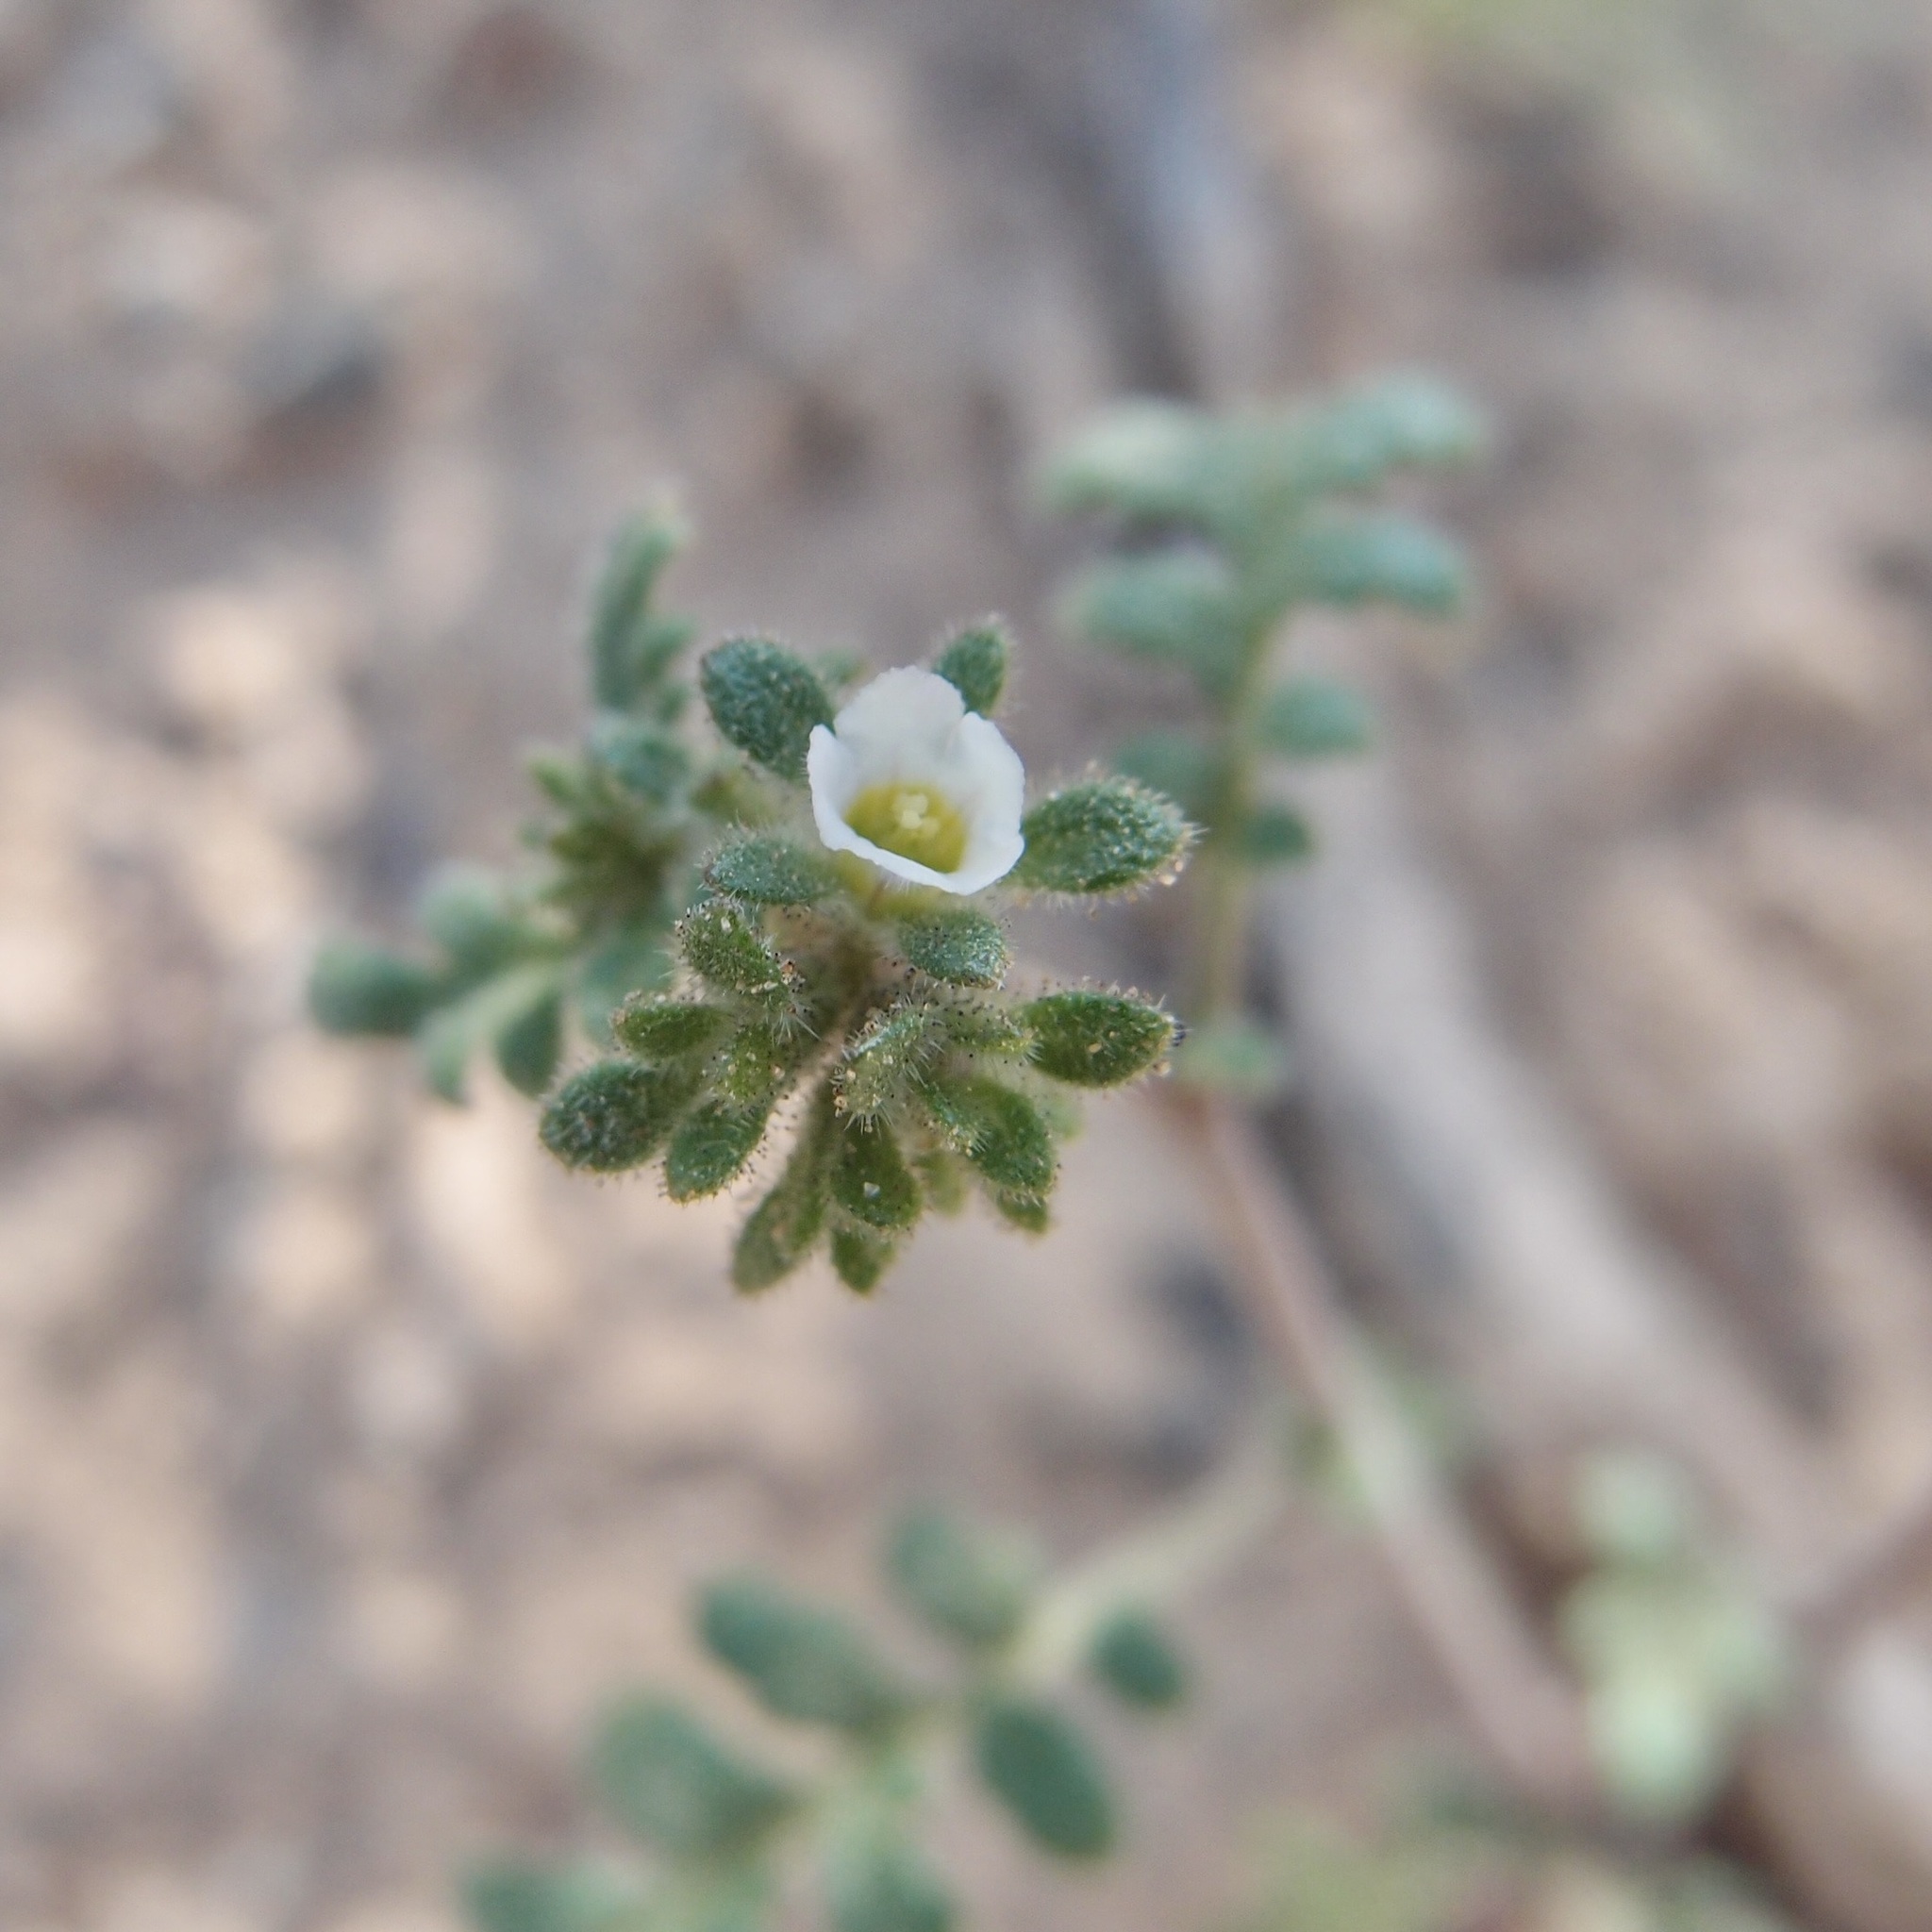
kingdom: Plantae
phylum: Tracheophyta
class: Magnoliopsida
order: Boraginales
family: Hydrophyllaceae
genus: Phacelia
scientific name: Phacelia affinis
